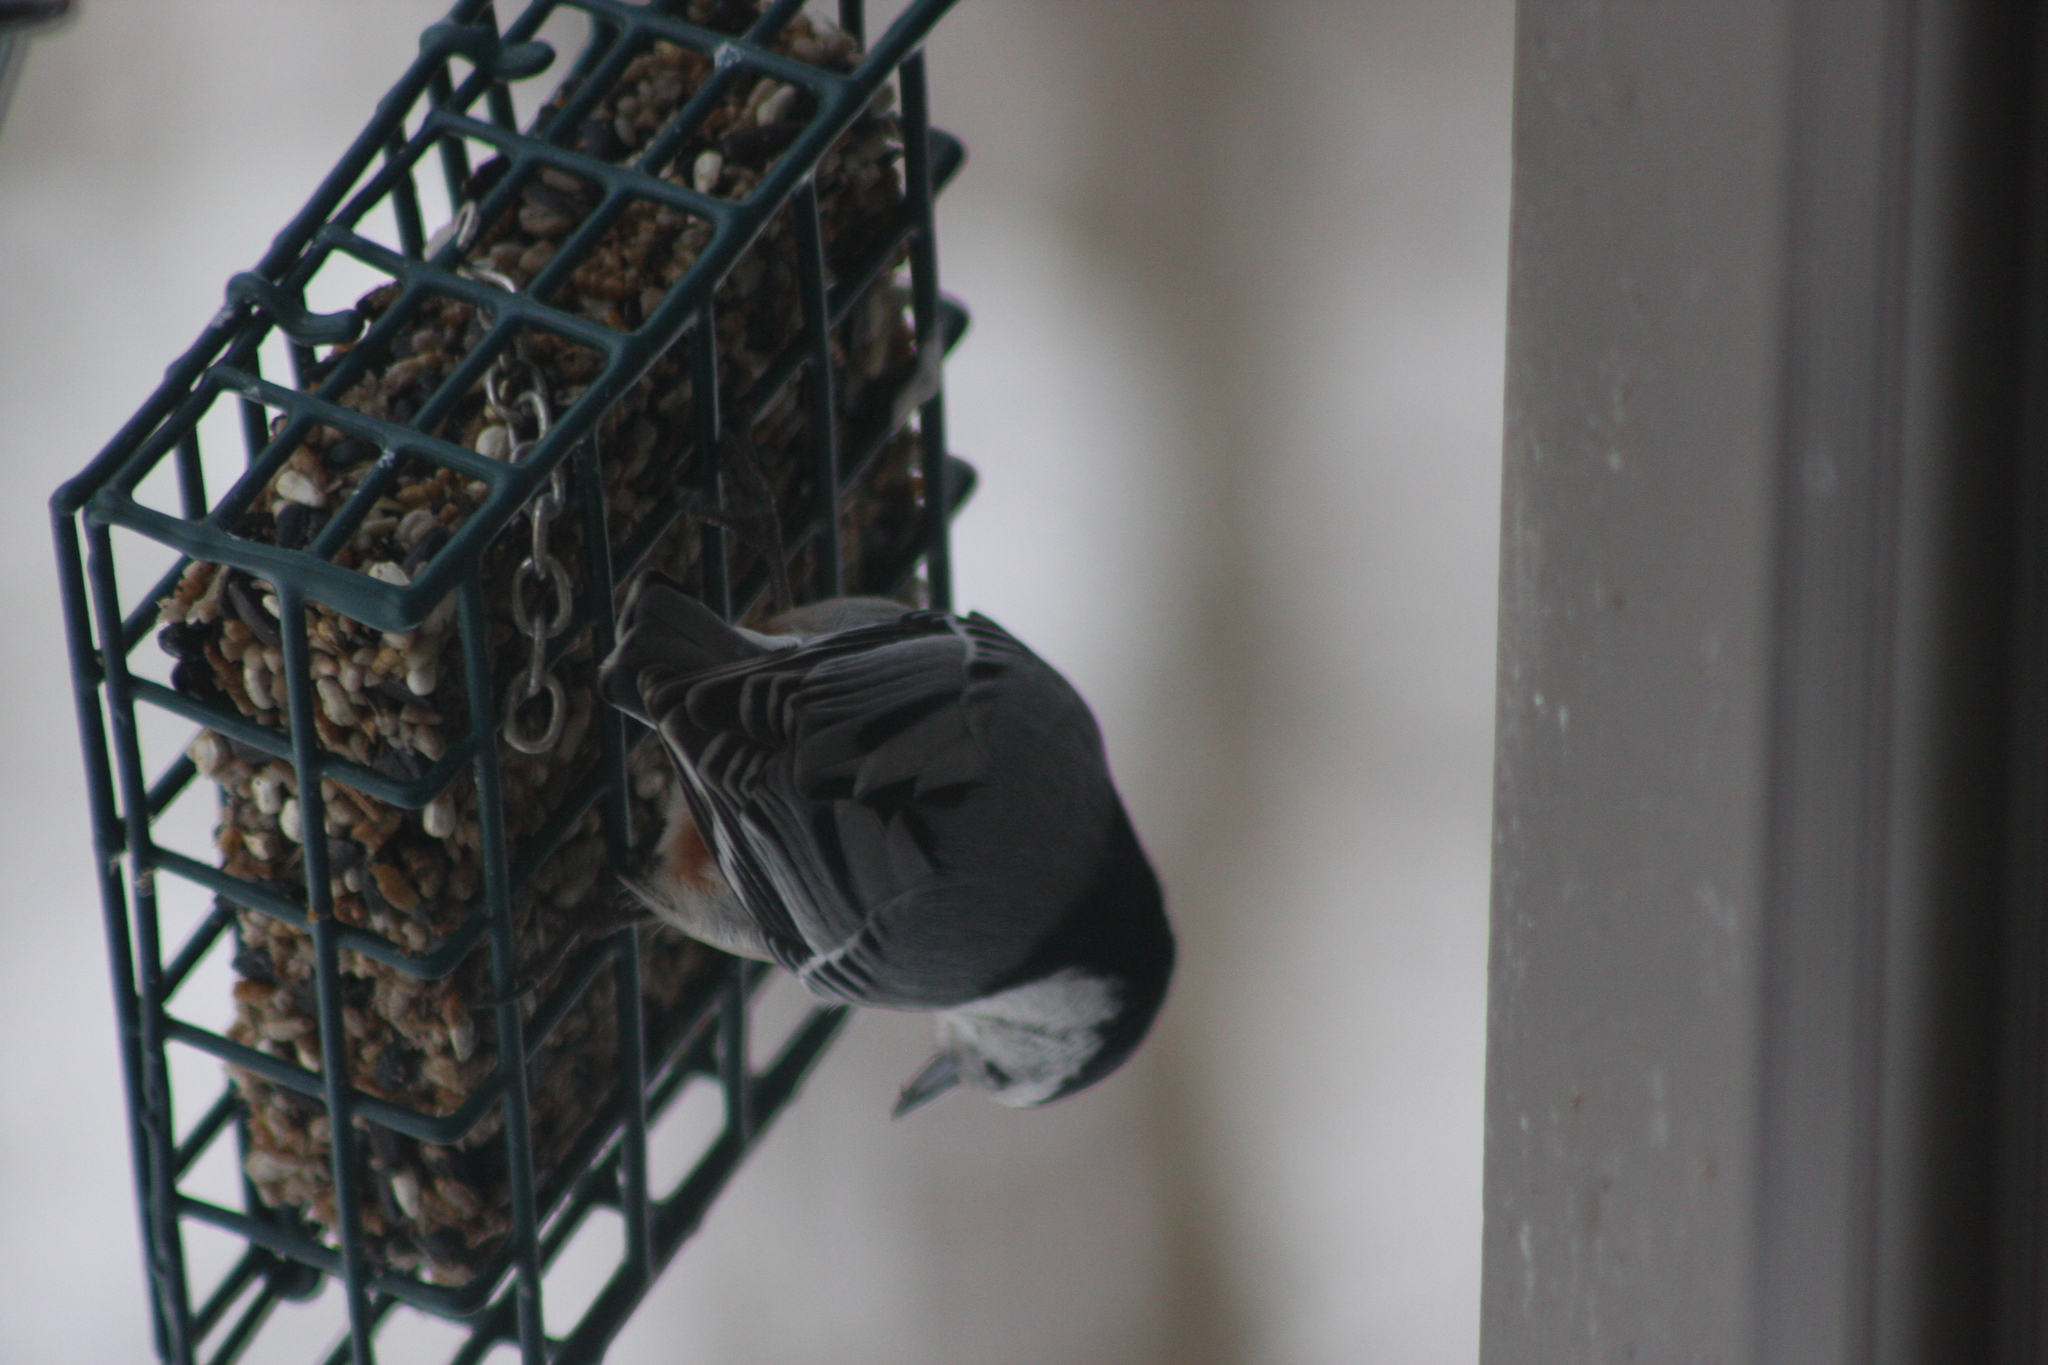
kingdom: Animalia
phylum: Chordata
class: Aves
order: Passeriformes
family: Sittidae
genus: Sitta
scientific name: Sitta carolinensis
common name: White-breasted nuthatch
